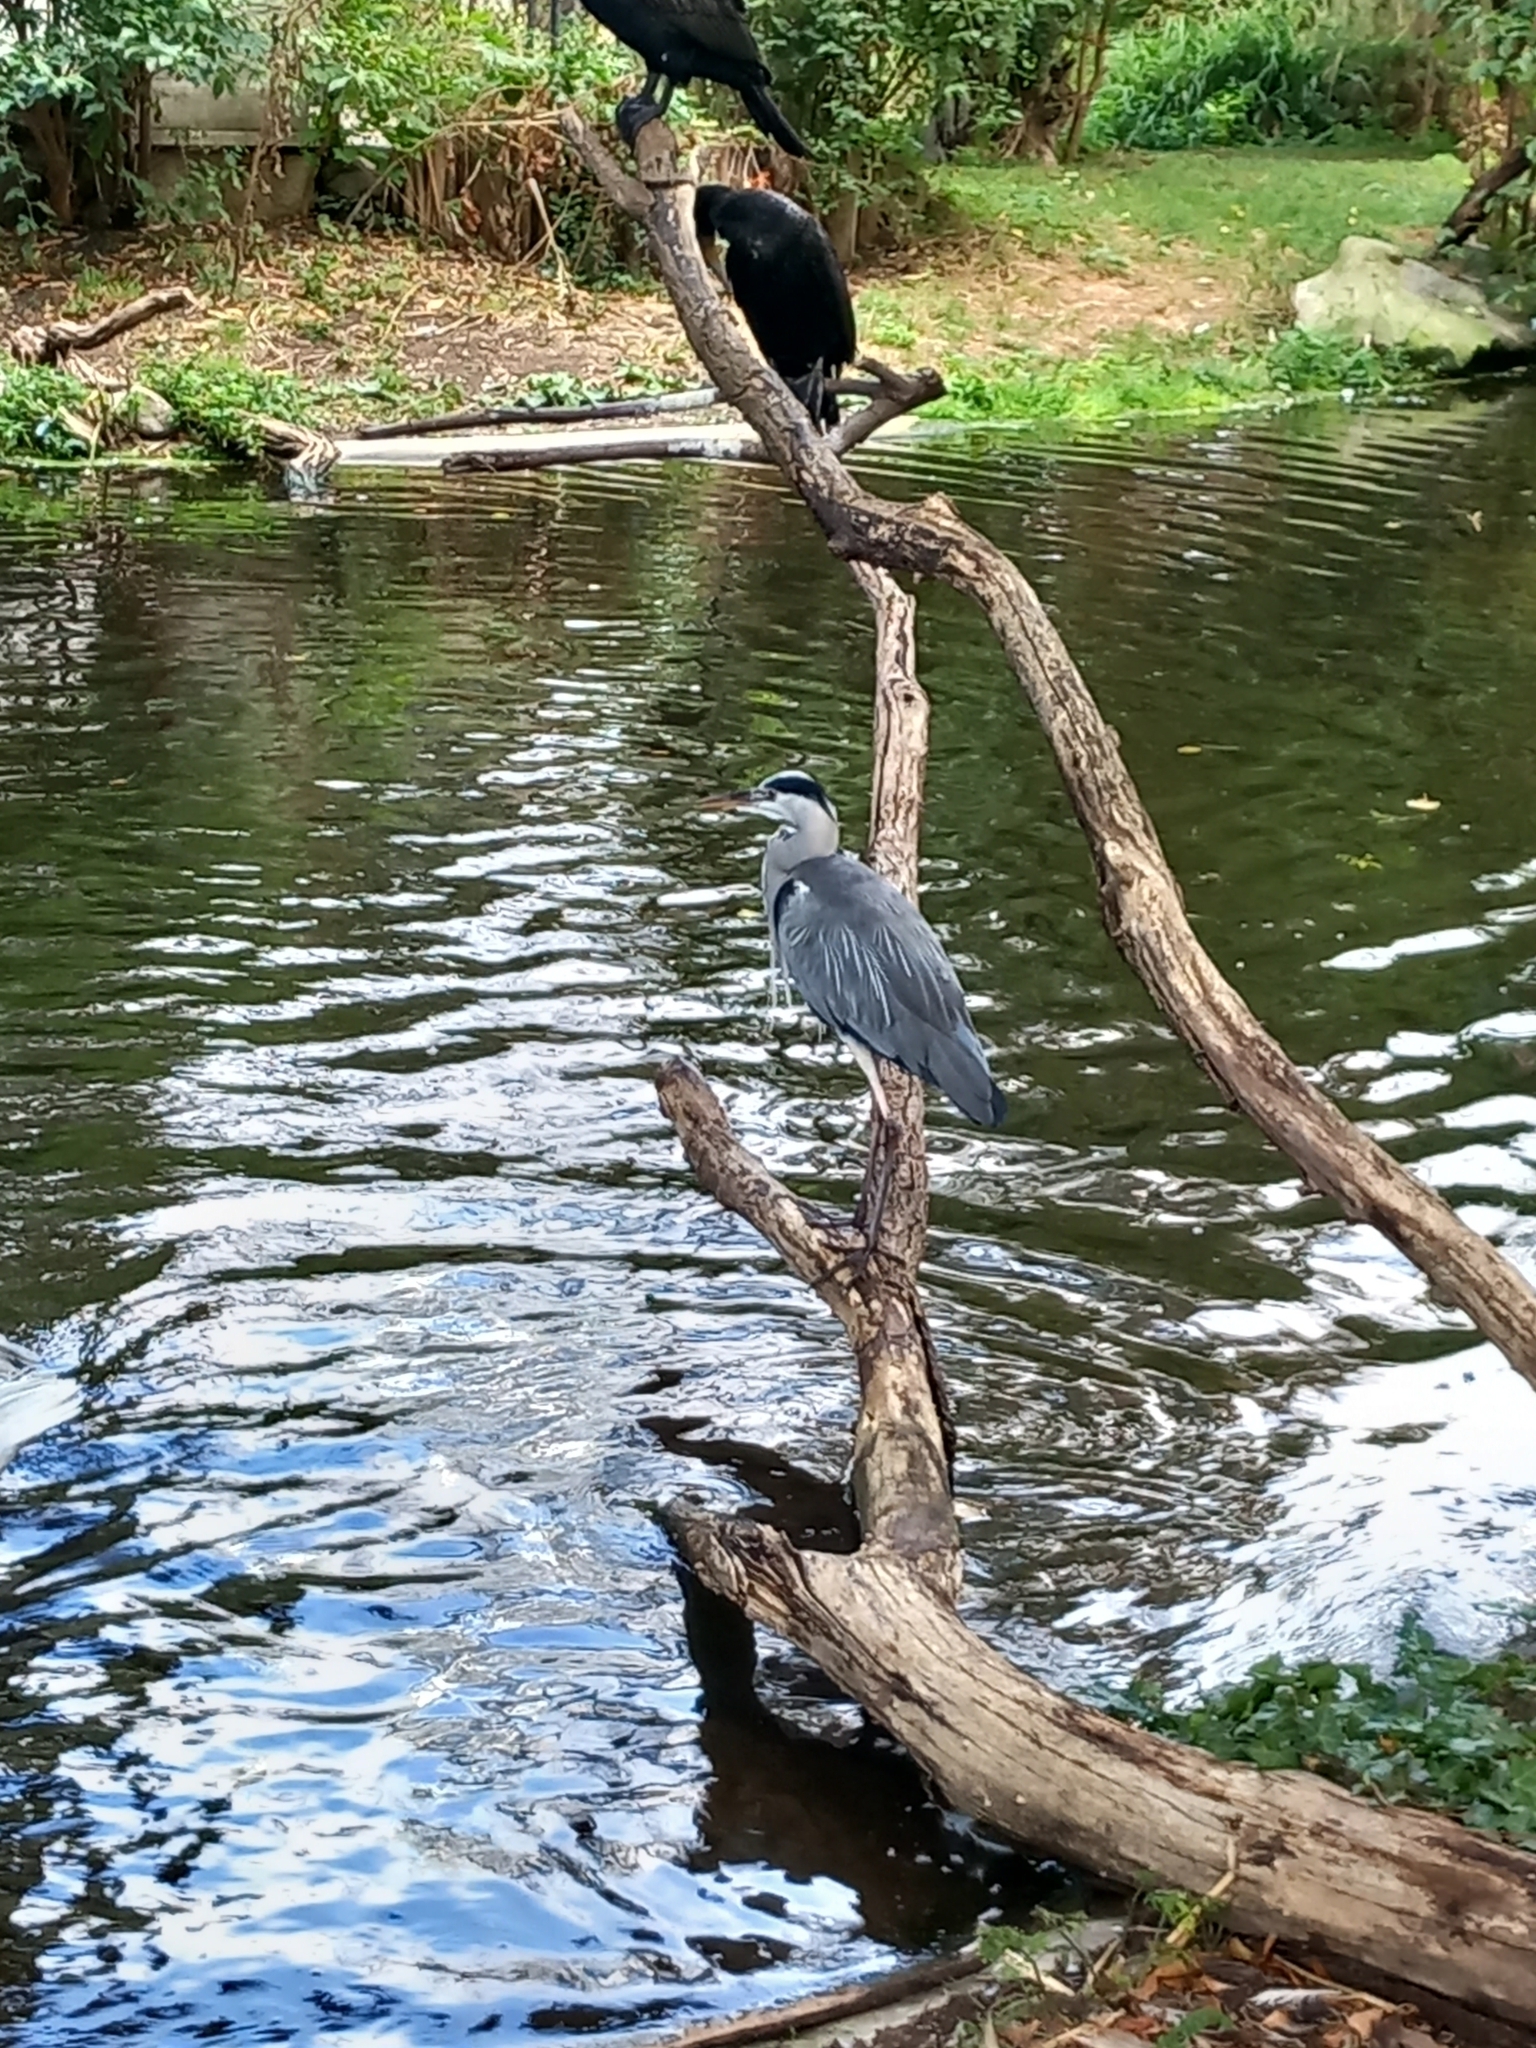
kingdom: Animalia
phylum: Chordata
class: Aves
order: Pelecaniformes
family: Ardeidae
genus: Ardea
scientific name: Ardea cinerea
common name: Grey heron
